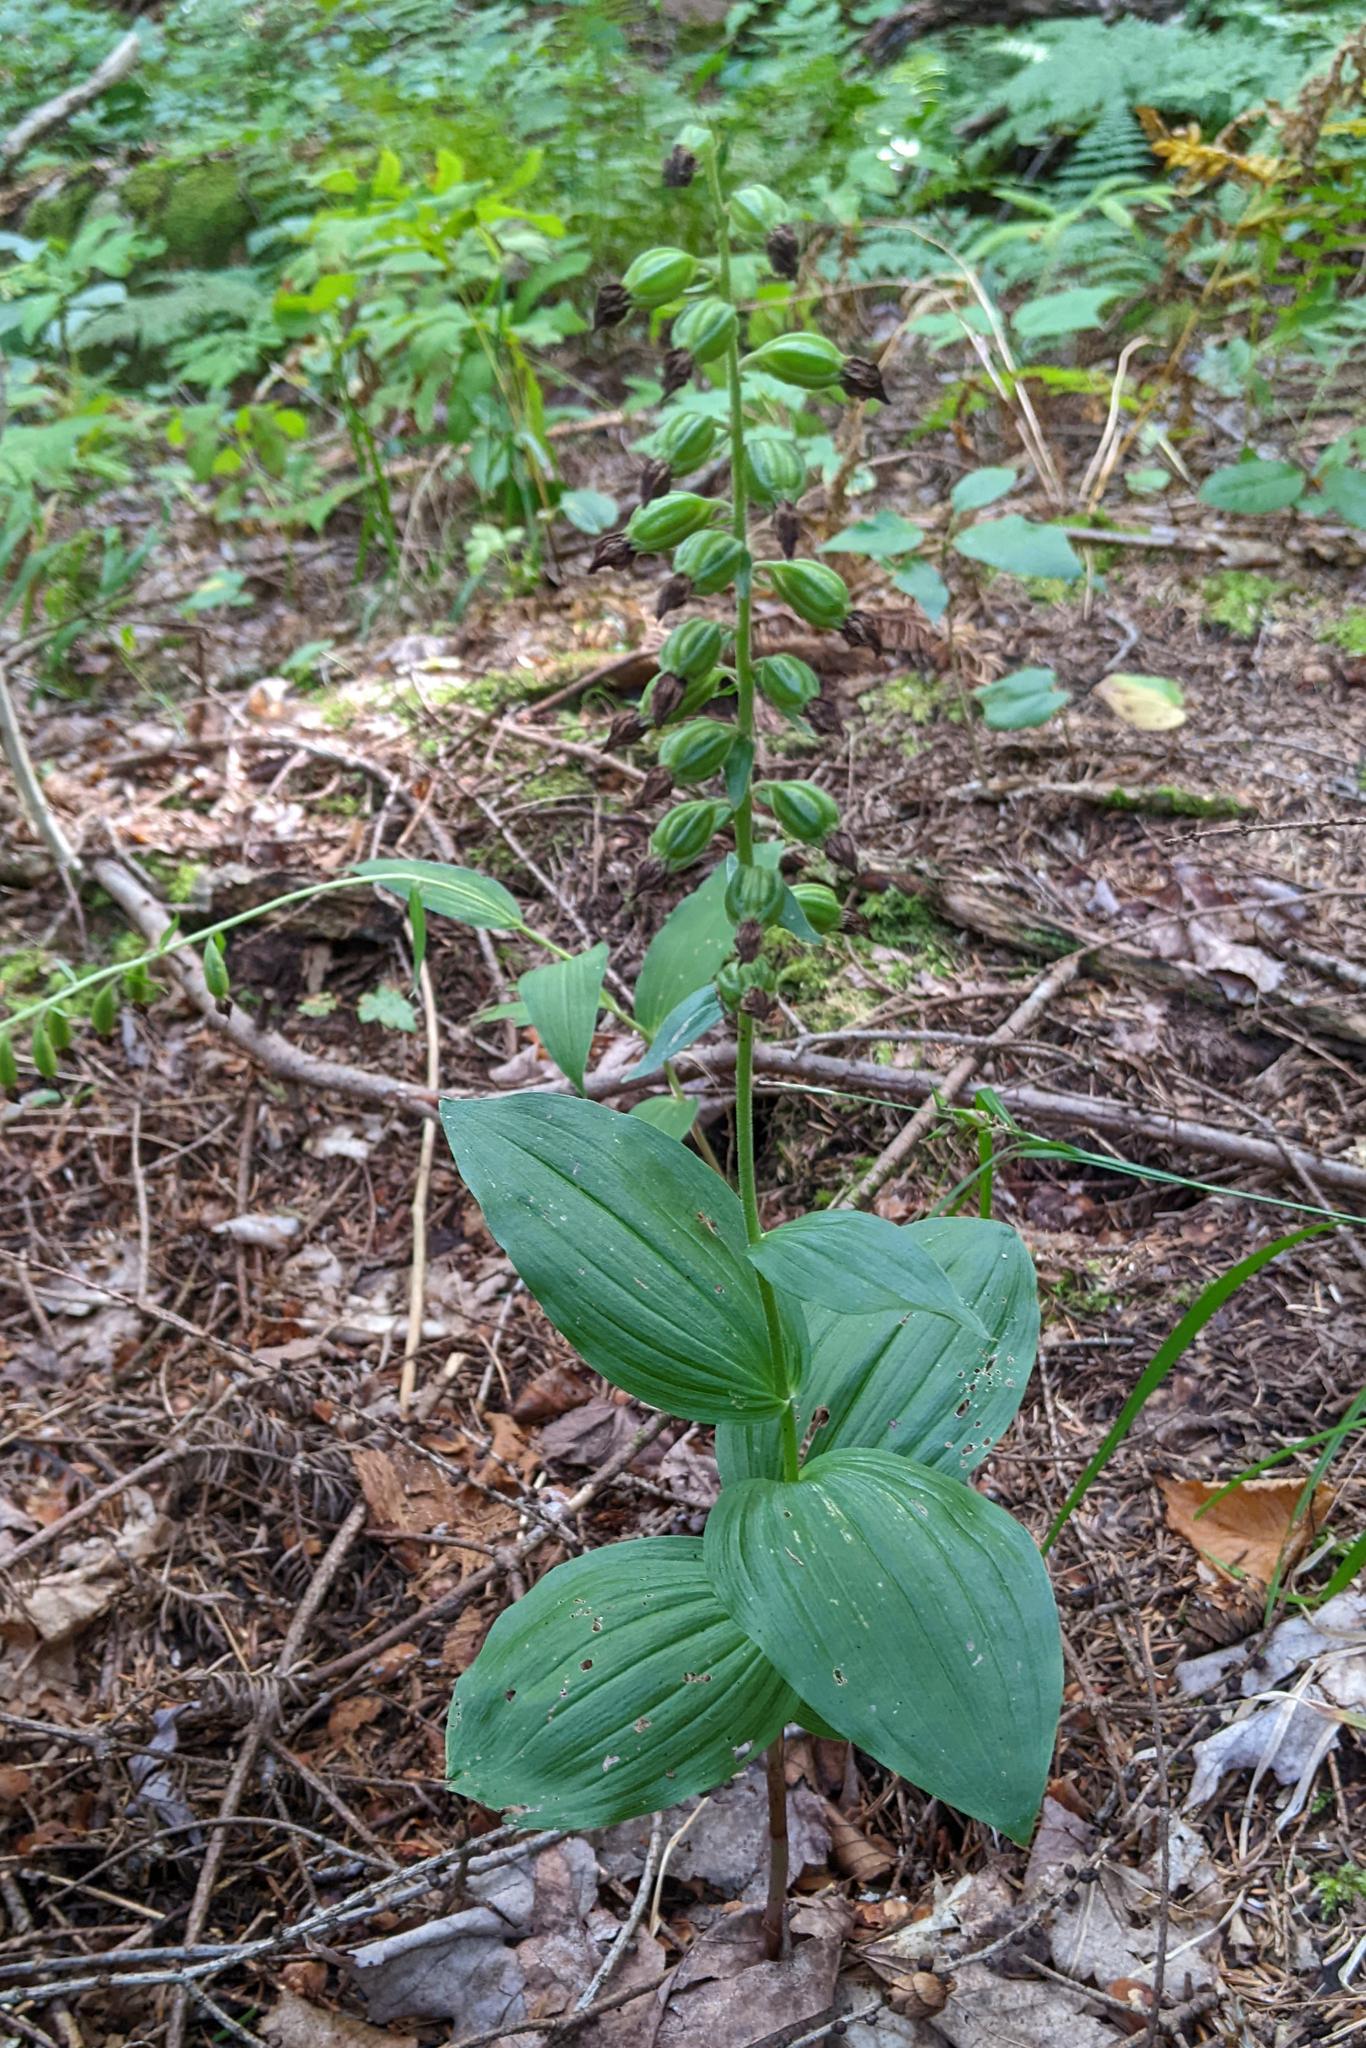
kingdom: Plantae
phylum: Tracheophyta
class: Liliopsida
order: Asparagales
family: Orchidaceae
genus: Epipactis
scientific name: Epipactis helleborine
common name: Broad-leaved helleborine
